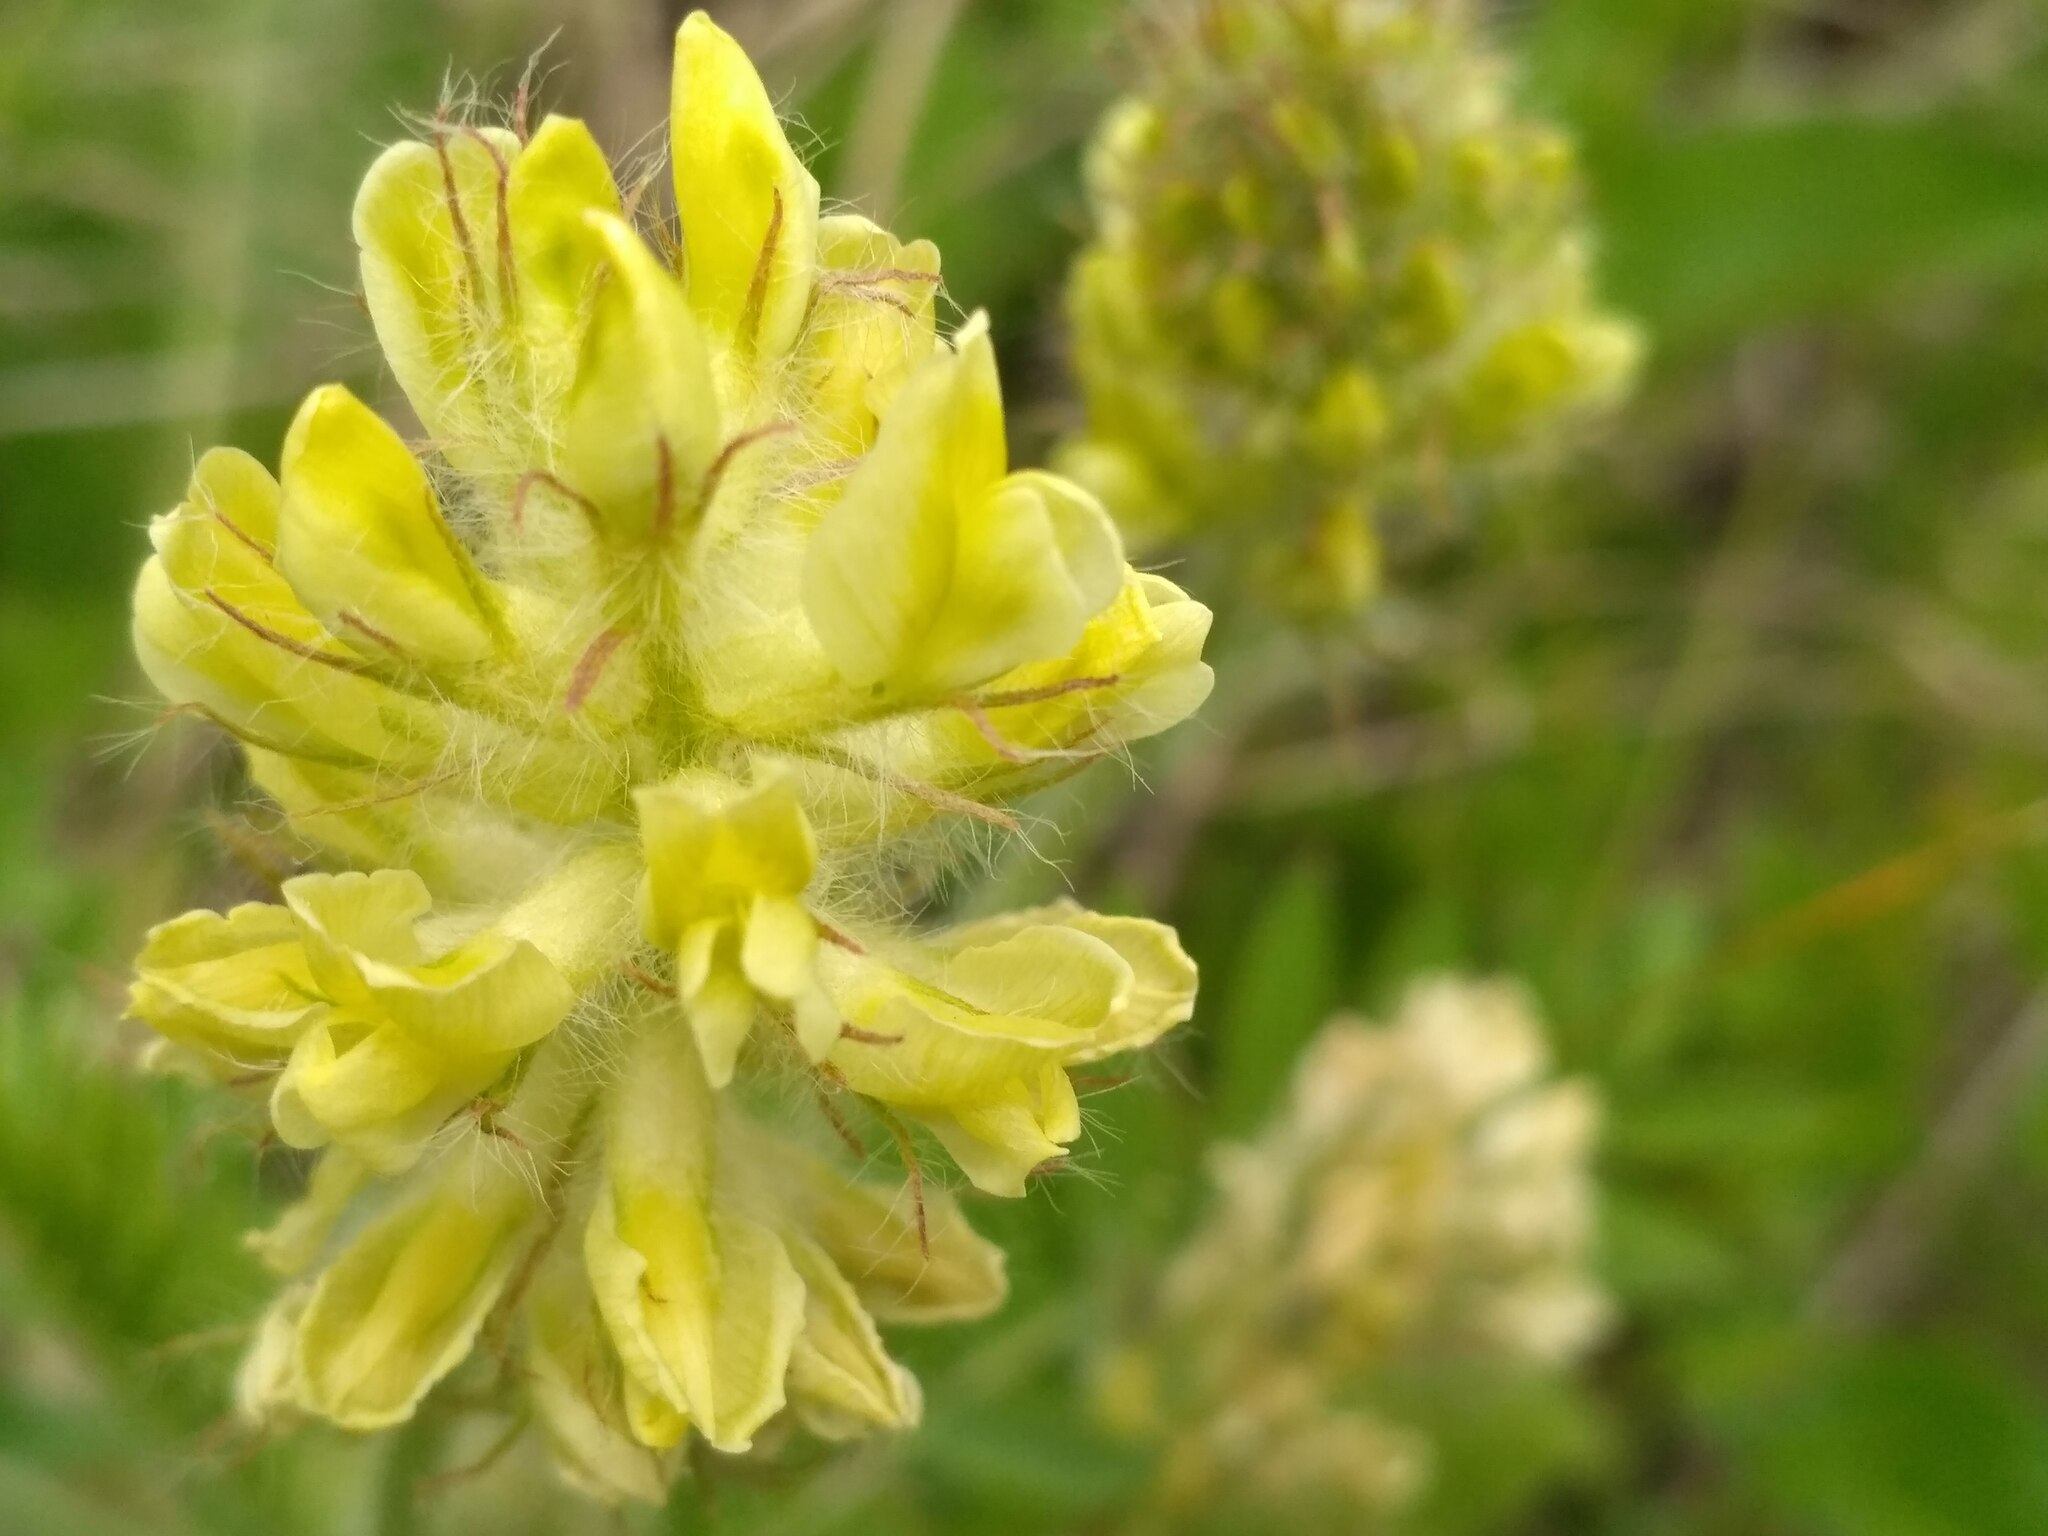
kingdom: Plantae
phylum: Tracheophyta
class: Magnoliopsida
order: Fabales
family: Fabaceae
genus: Oxytropis
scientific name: Oxytropis pilosa
